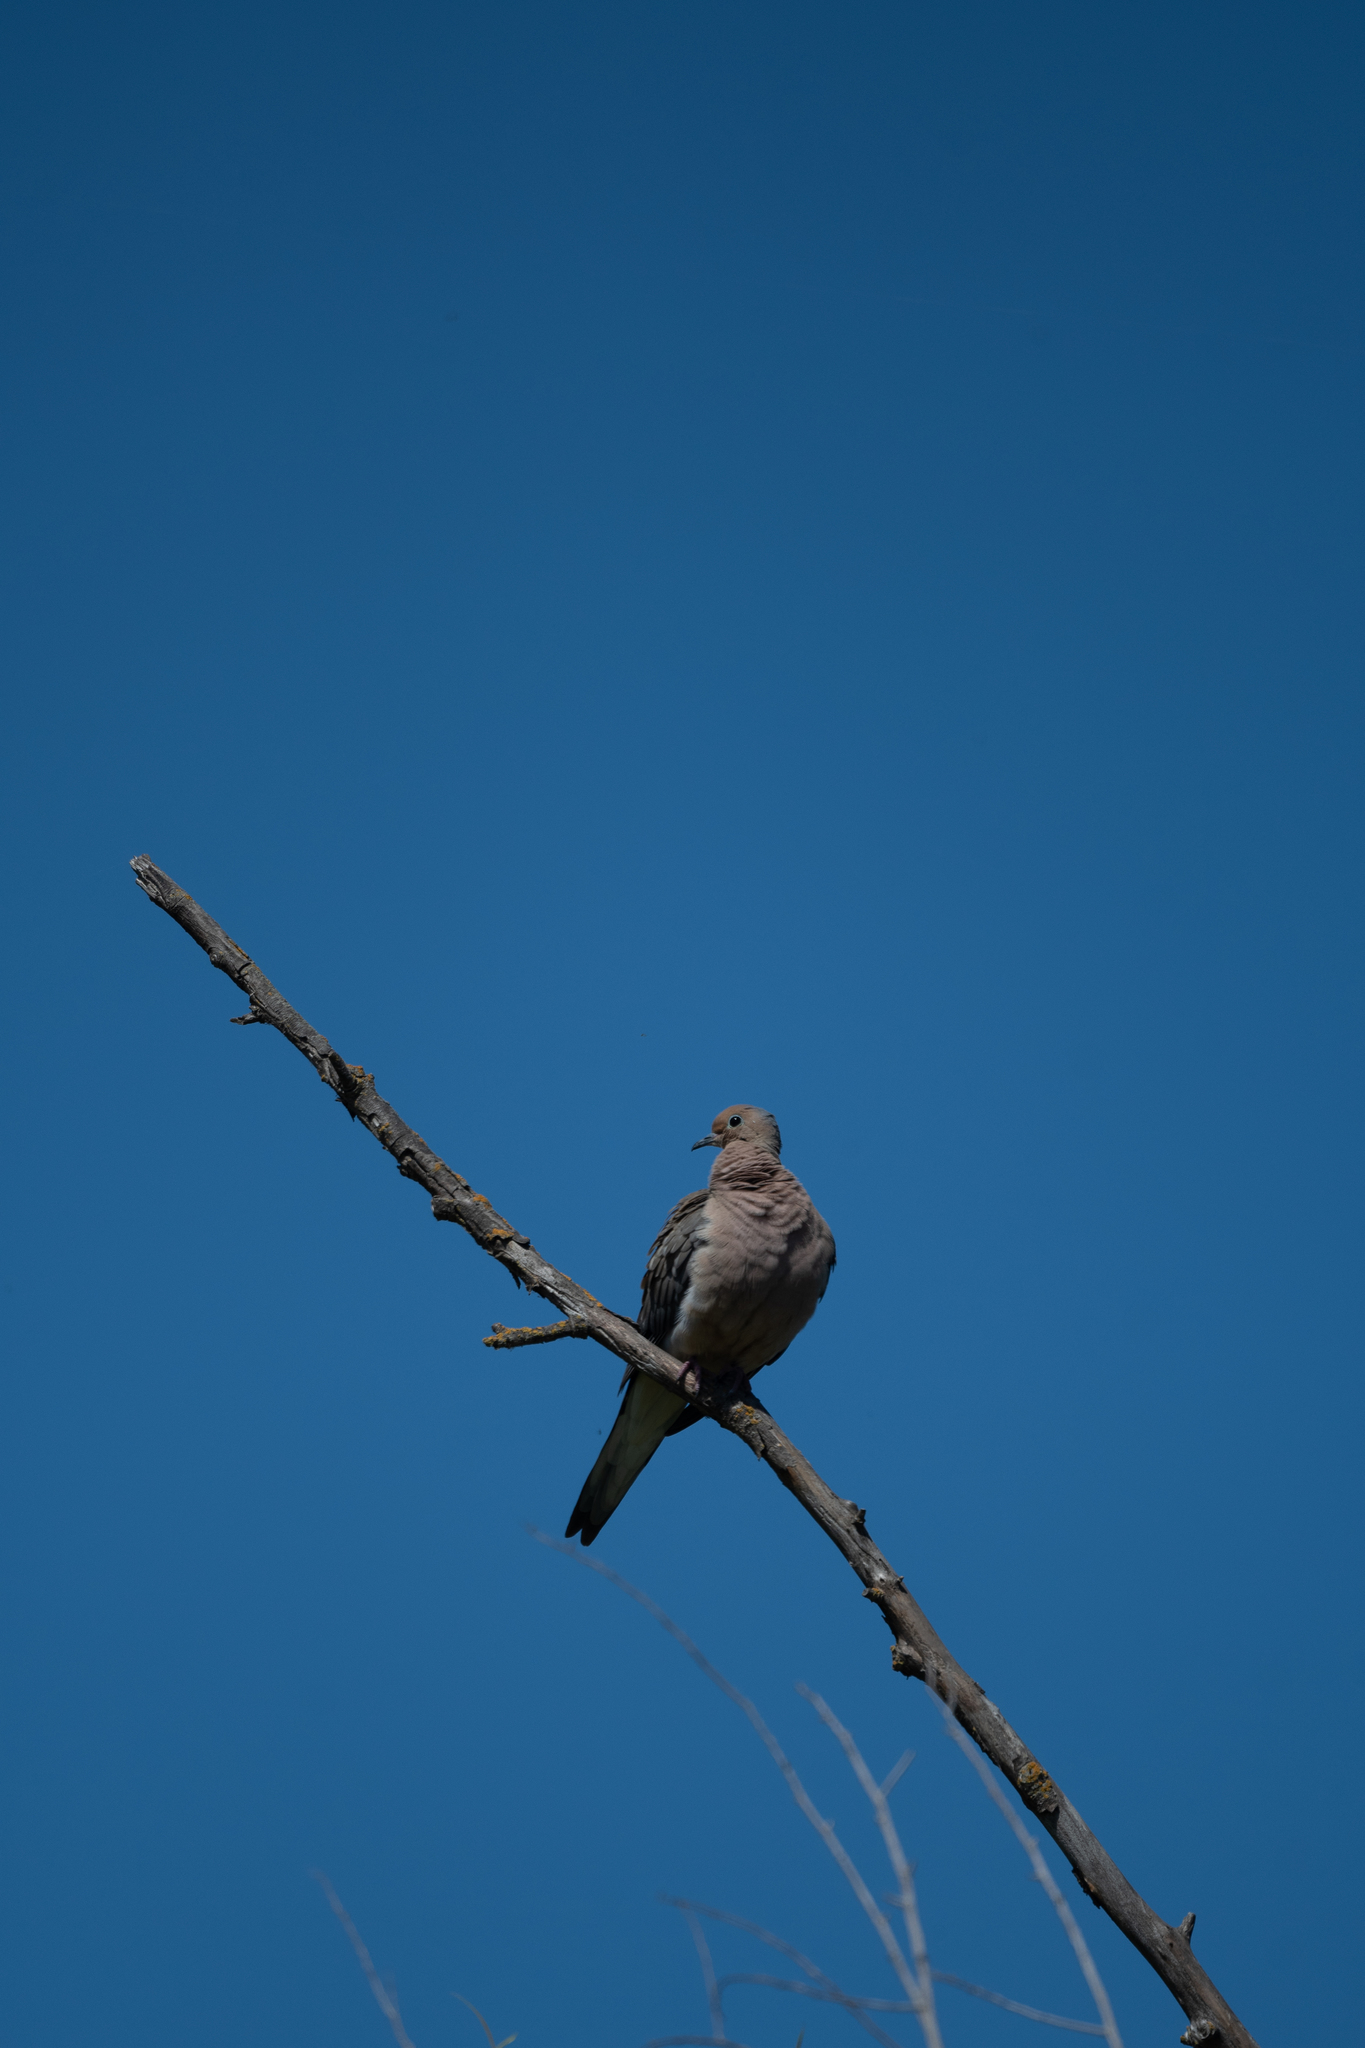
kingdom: Animalia
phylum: Chordata
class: Aves
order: Columbiformes
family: Columbidae
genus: Zenaida
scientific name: Zenaida macroura
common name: Mourning dove
